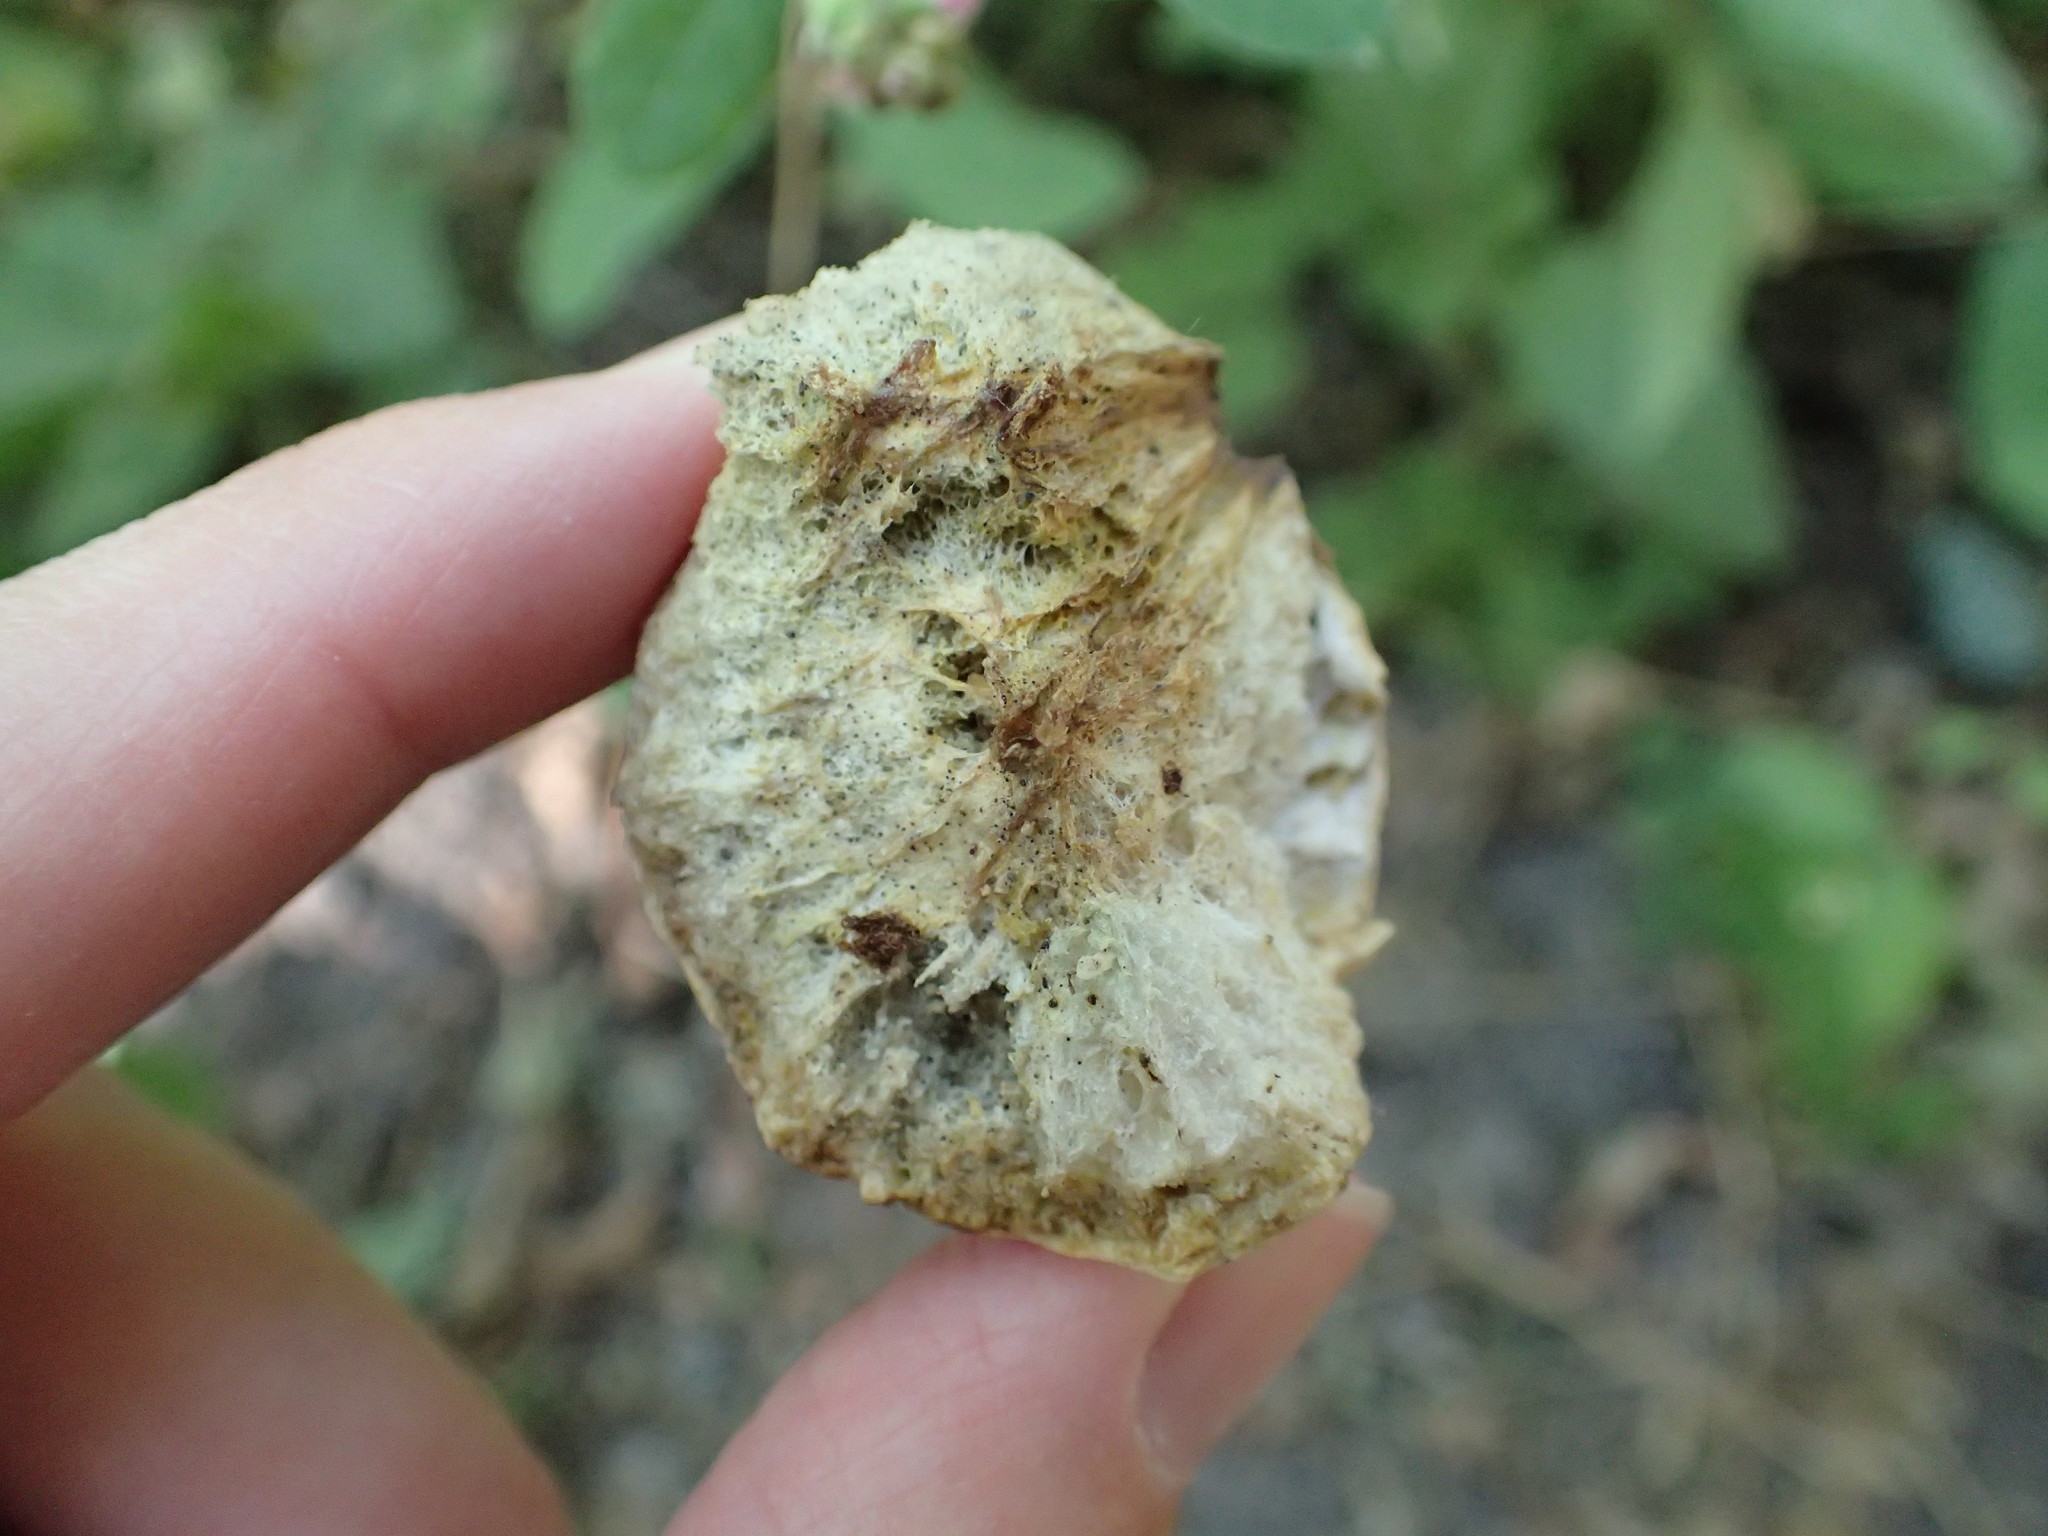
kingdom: Animalia
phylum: Arthropoda
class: Insecta
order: Hymenoptera
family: Cynipidae
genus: Andricus
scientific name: Andricus quercuscalifornicus
